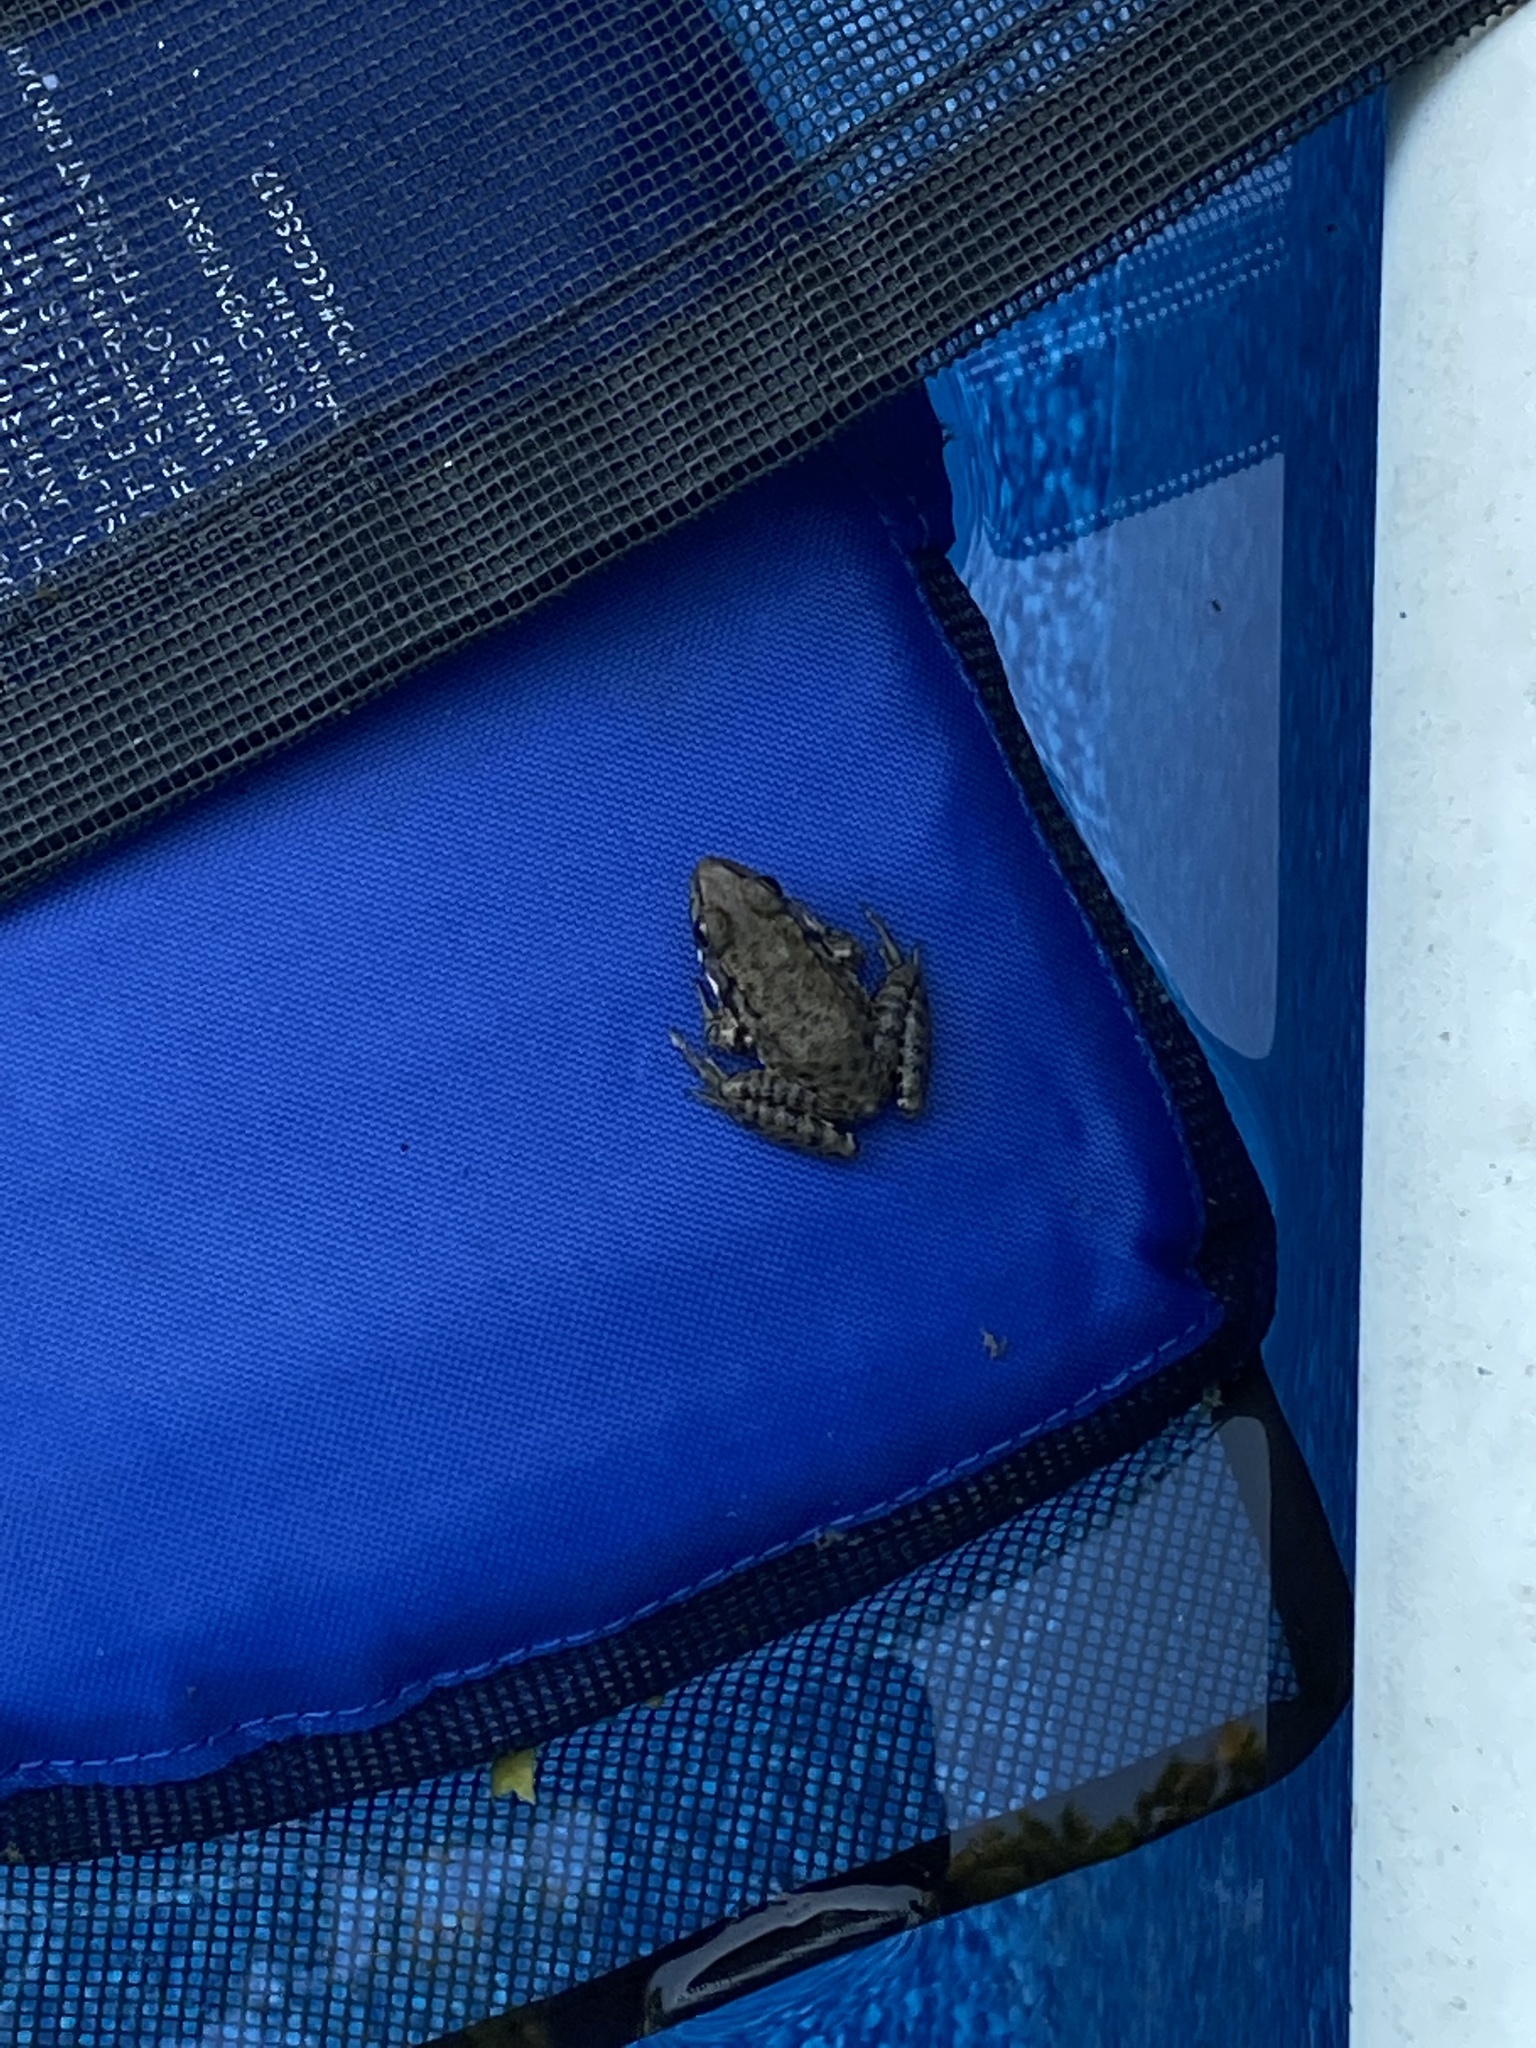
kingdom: Animalia
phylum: Chordata
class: Amphibia
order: Anura
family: Ranidae
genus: Lithobates
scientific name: Lithobates clamitans
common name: Green frog
